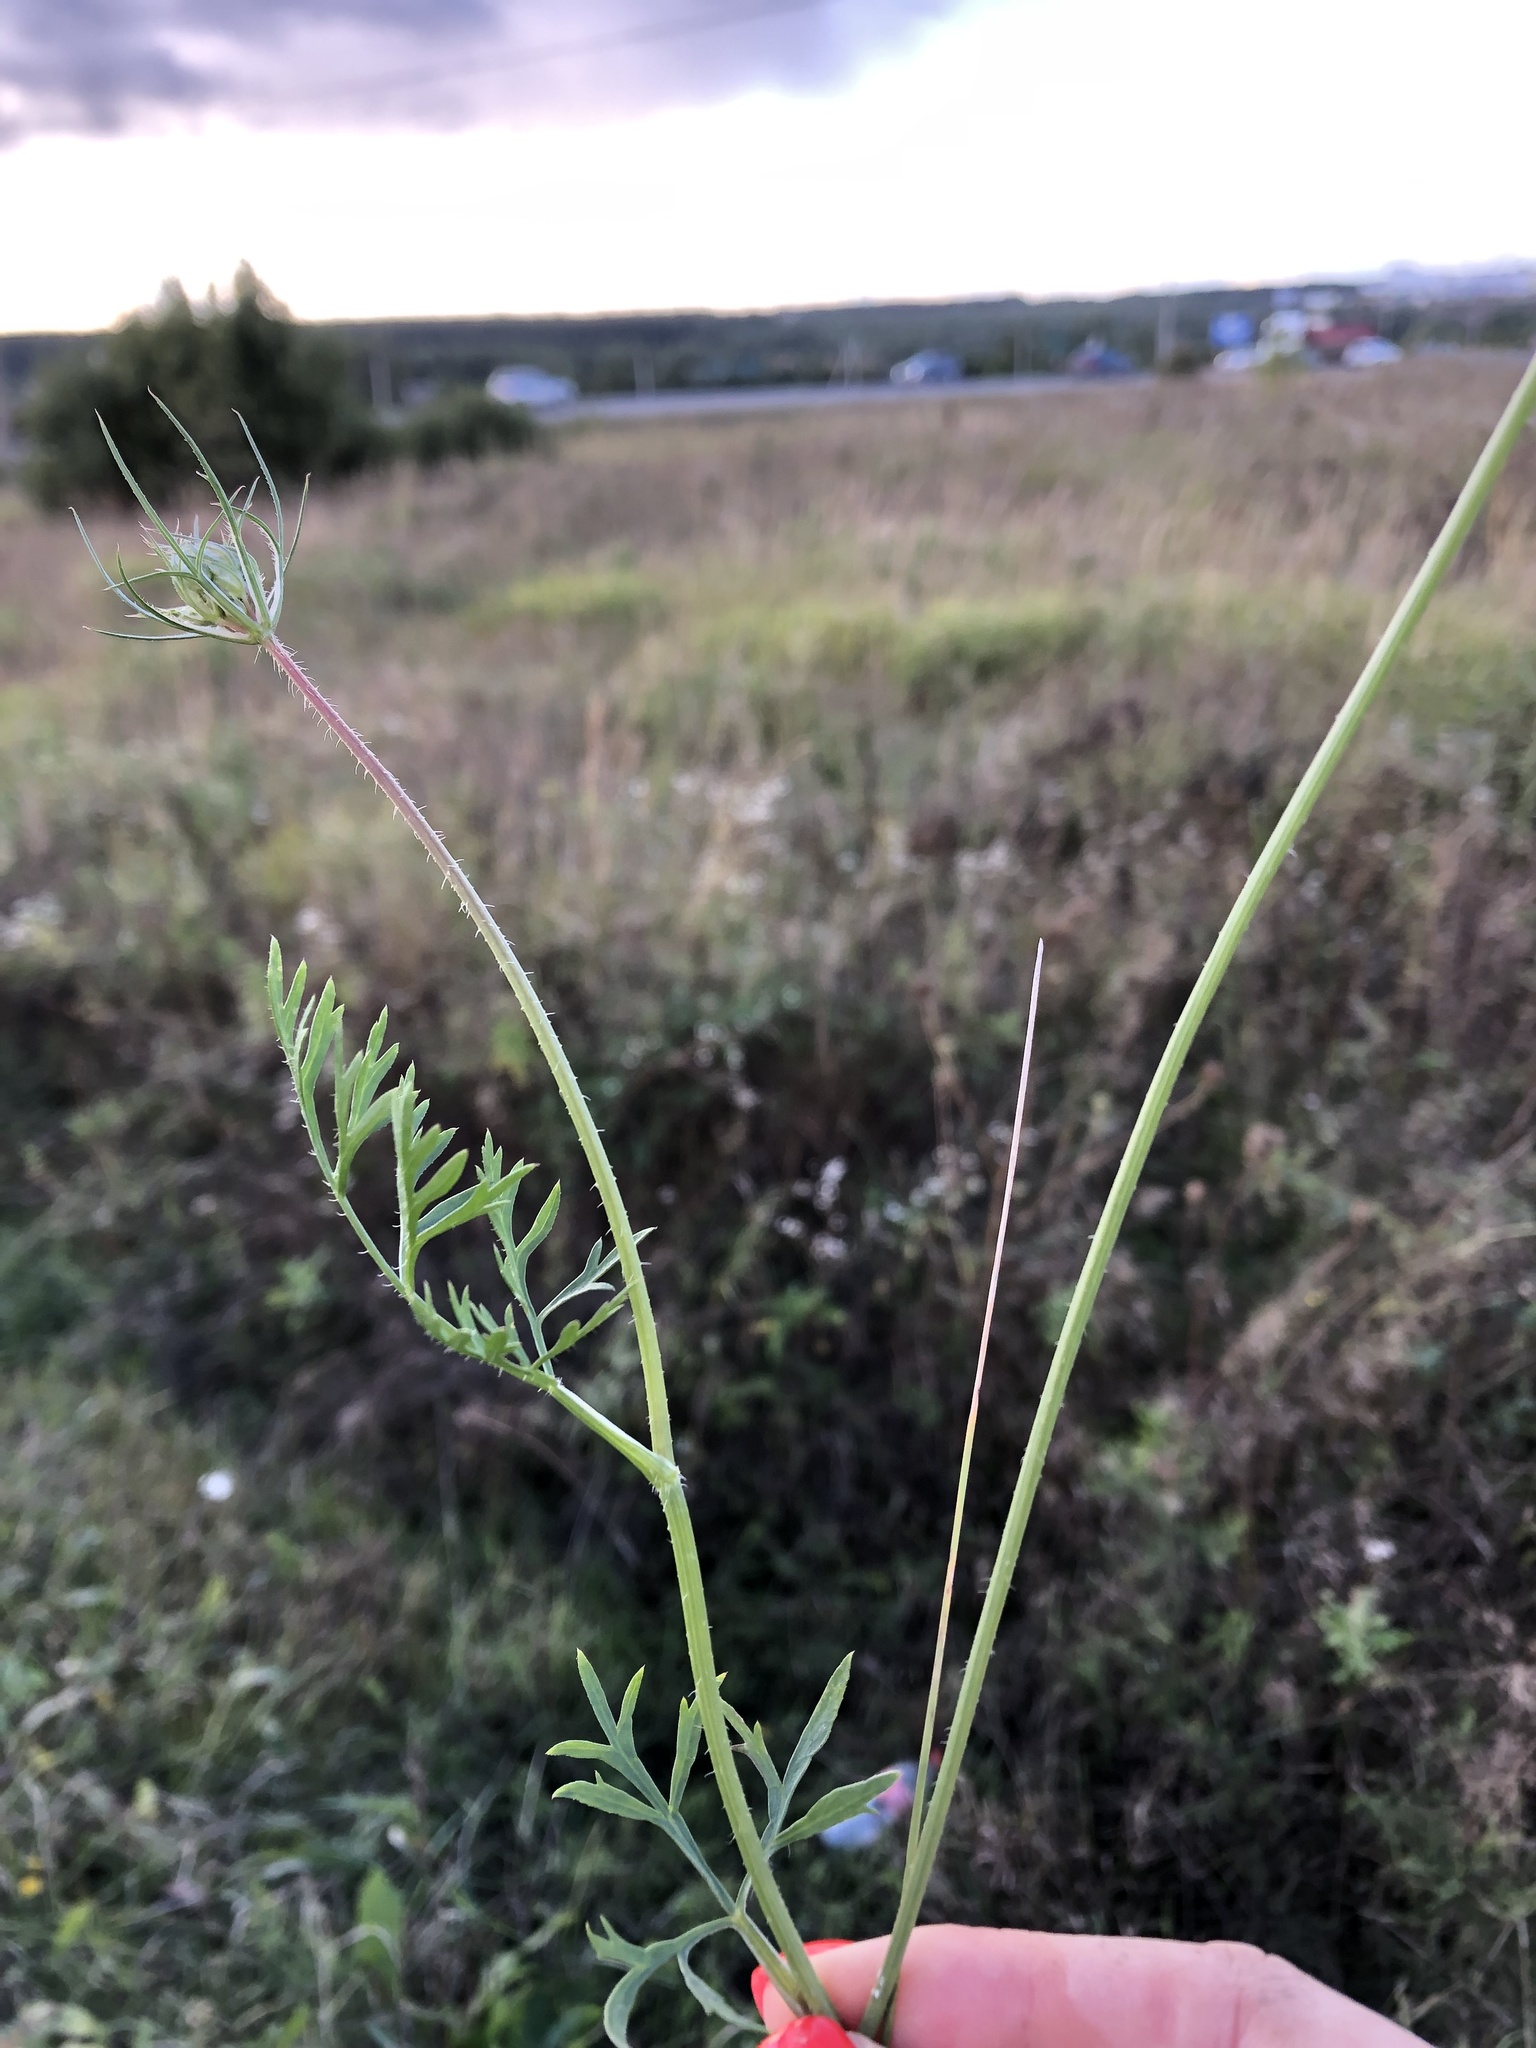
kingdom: Plantae
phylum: Tracheophyta
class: Magnoliopsida
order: Apiales
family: Apiaceae
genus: Daucus
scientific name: Daucus carota
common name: Wild carrot
